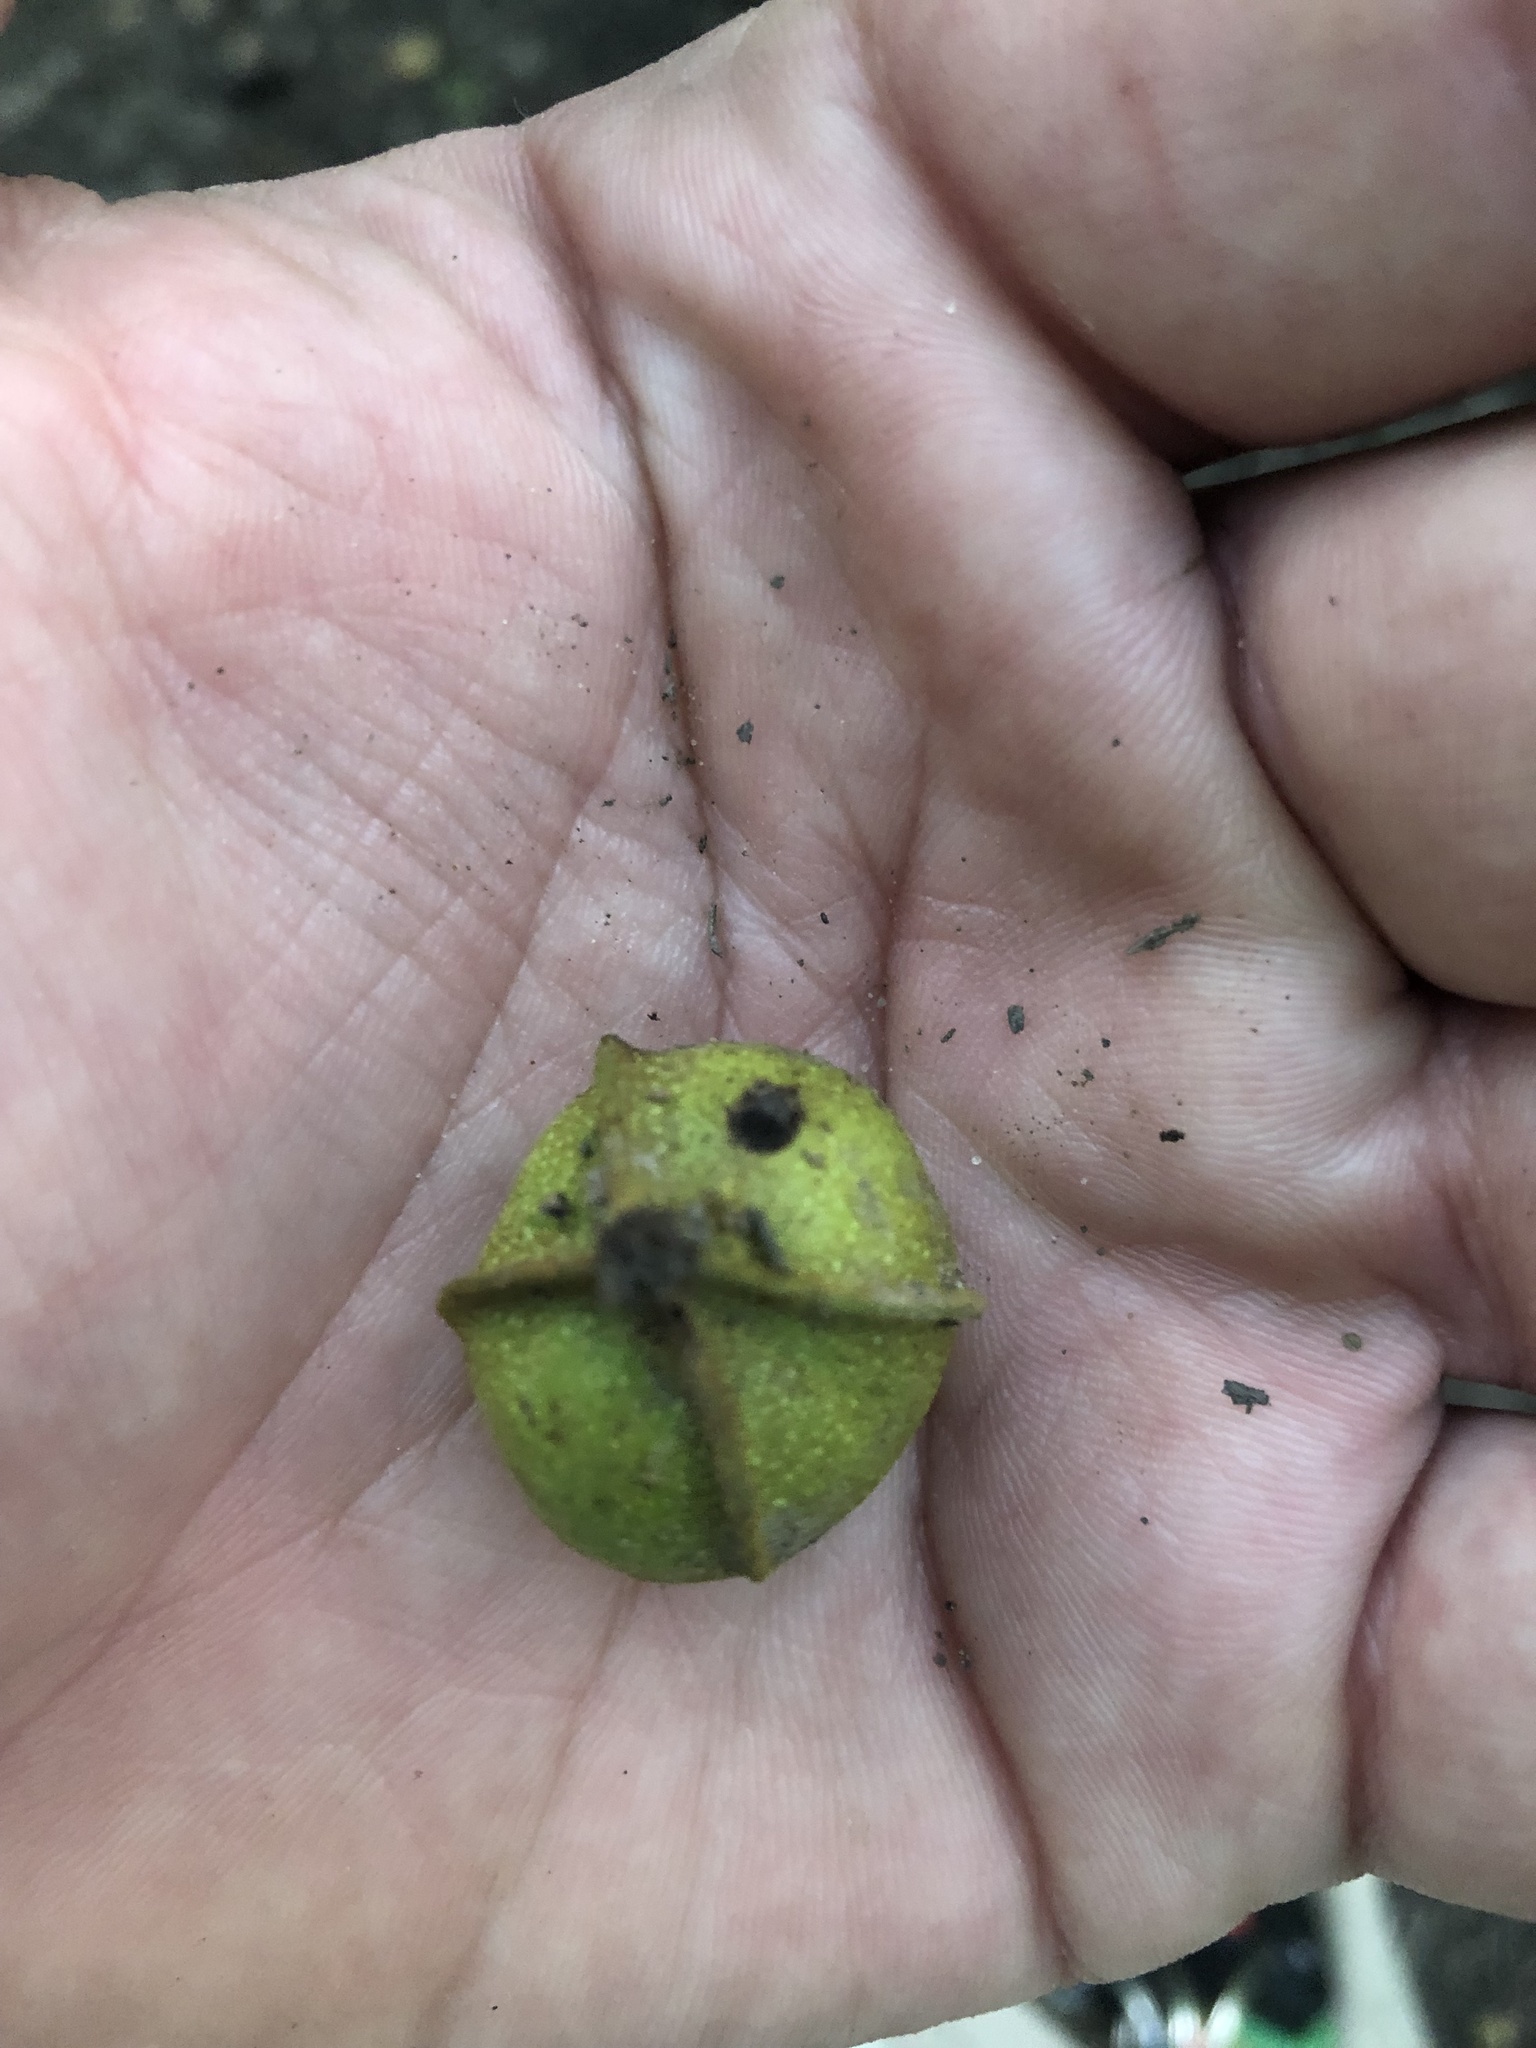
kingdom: Plantae
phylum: Tracheophyta
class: Magnoliopsida
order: Fagales
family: Juglandaceae
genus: Carya
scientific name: Carya cordiformis
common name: Bitternut hickory
